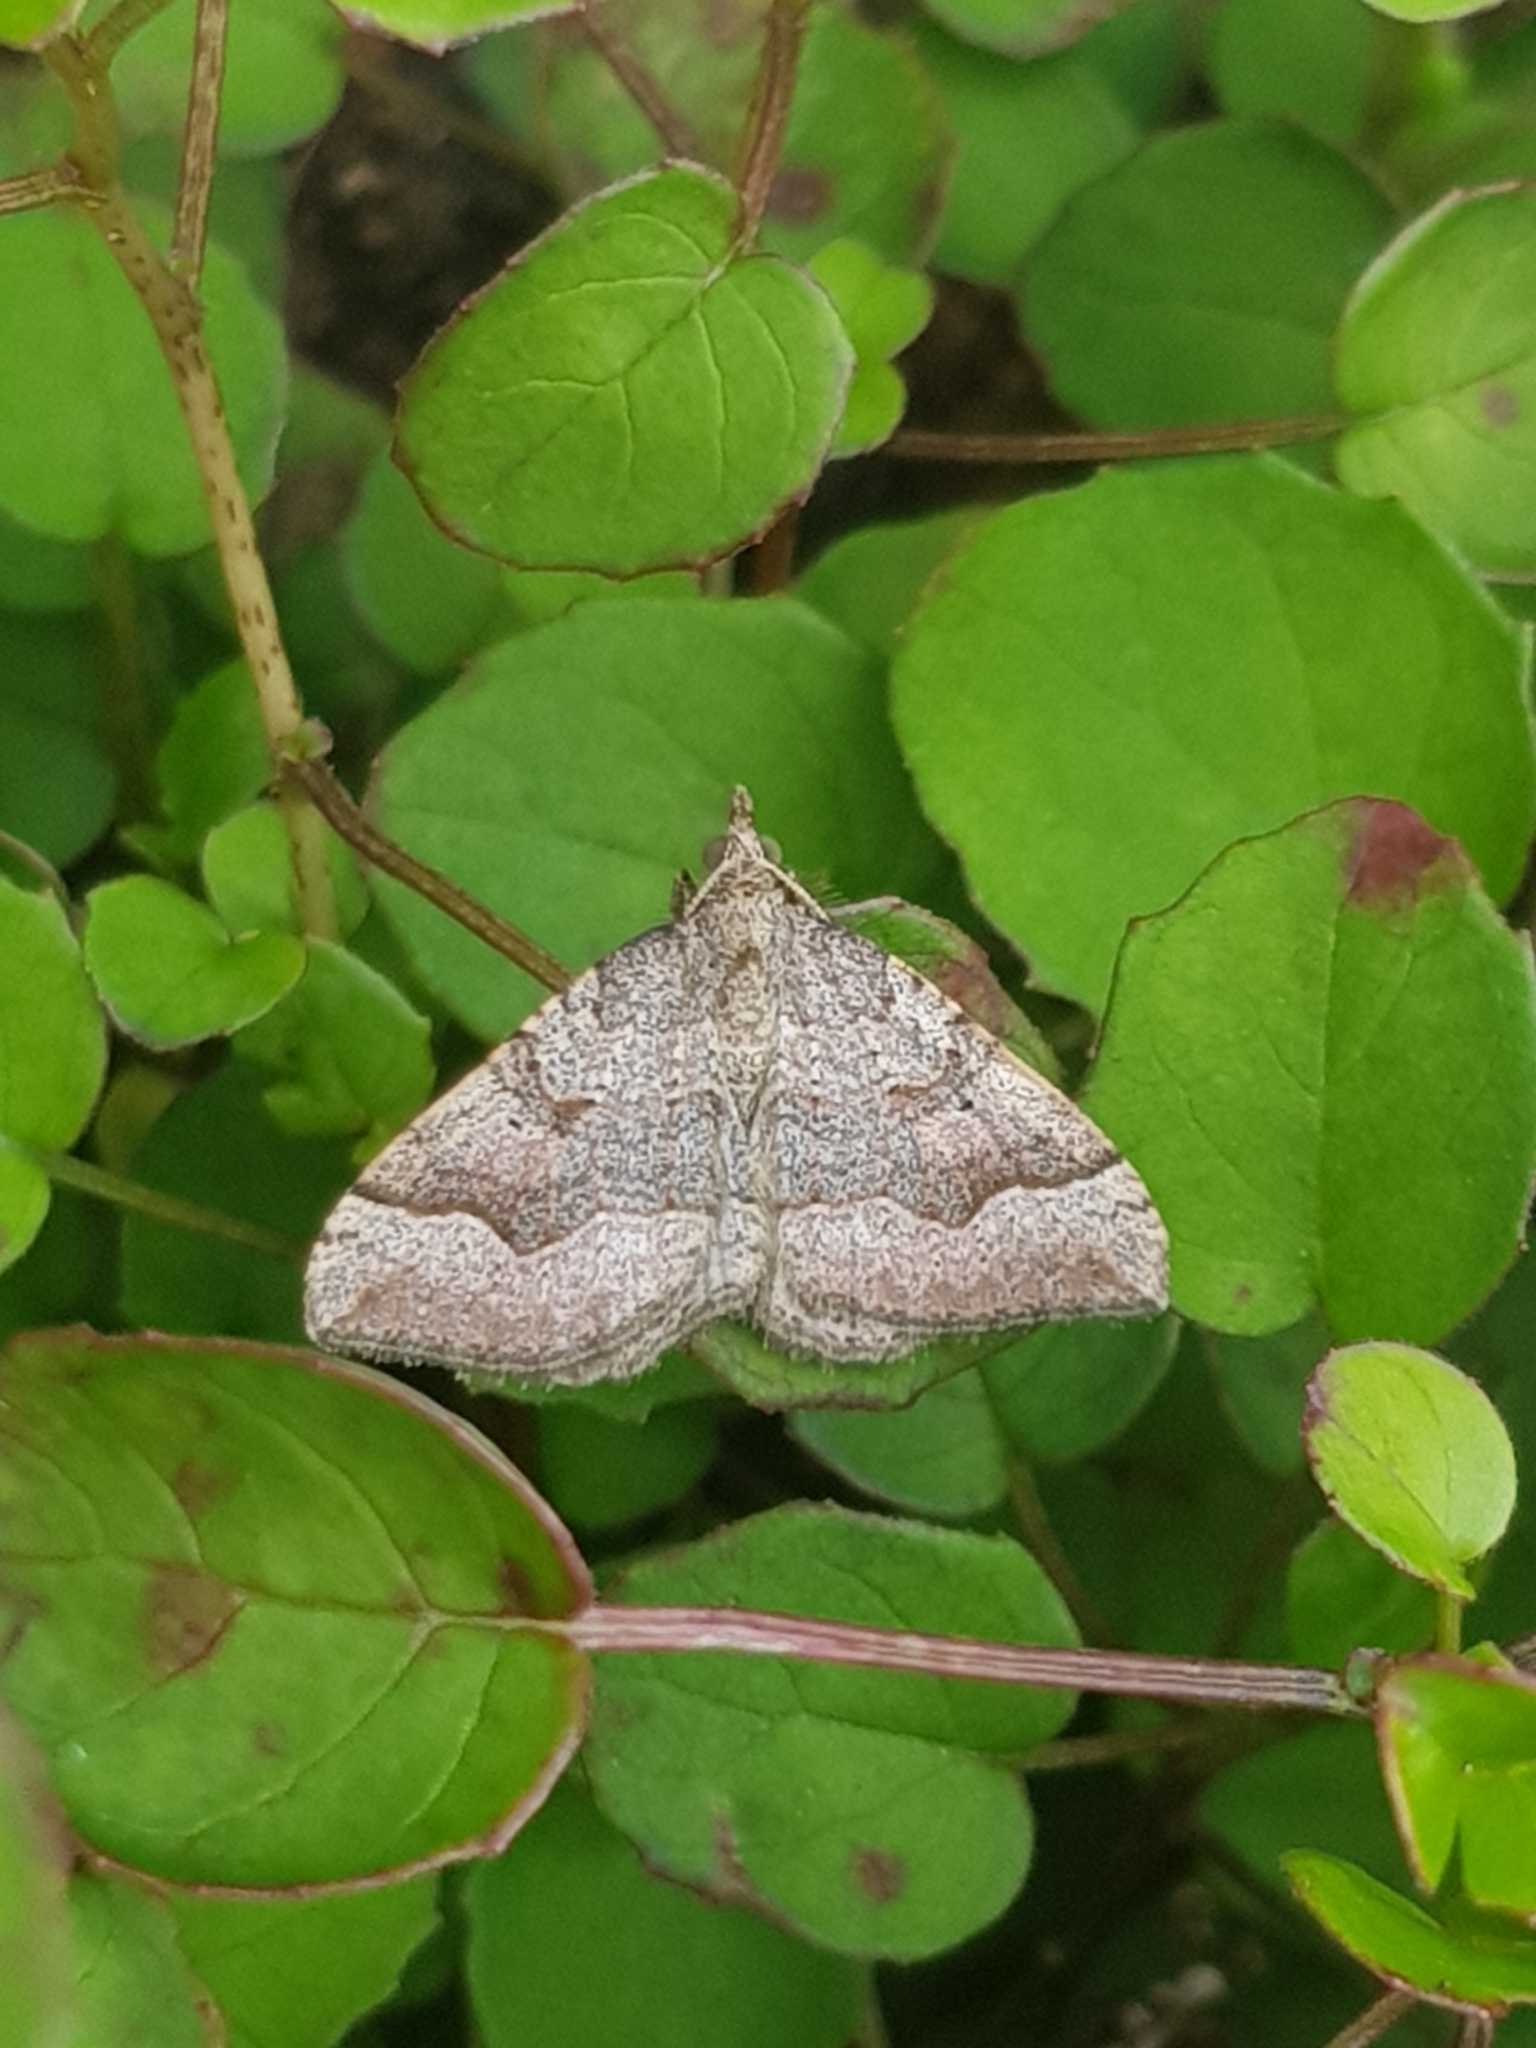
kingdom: Animalia
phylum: Arthropoda
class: Insecta
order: Lepidoptera
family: Geometridae
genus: Epyaxa
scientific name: Epyaxa rosearia
